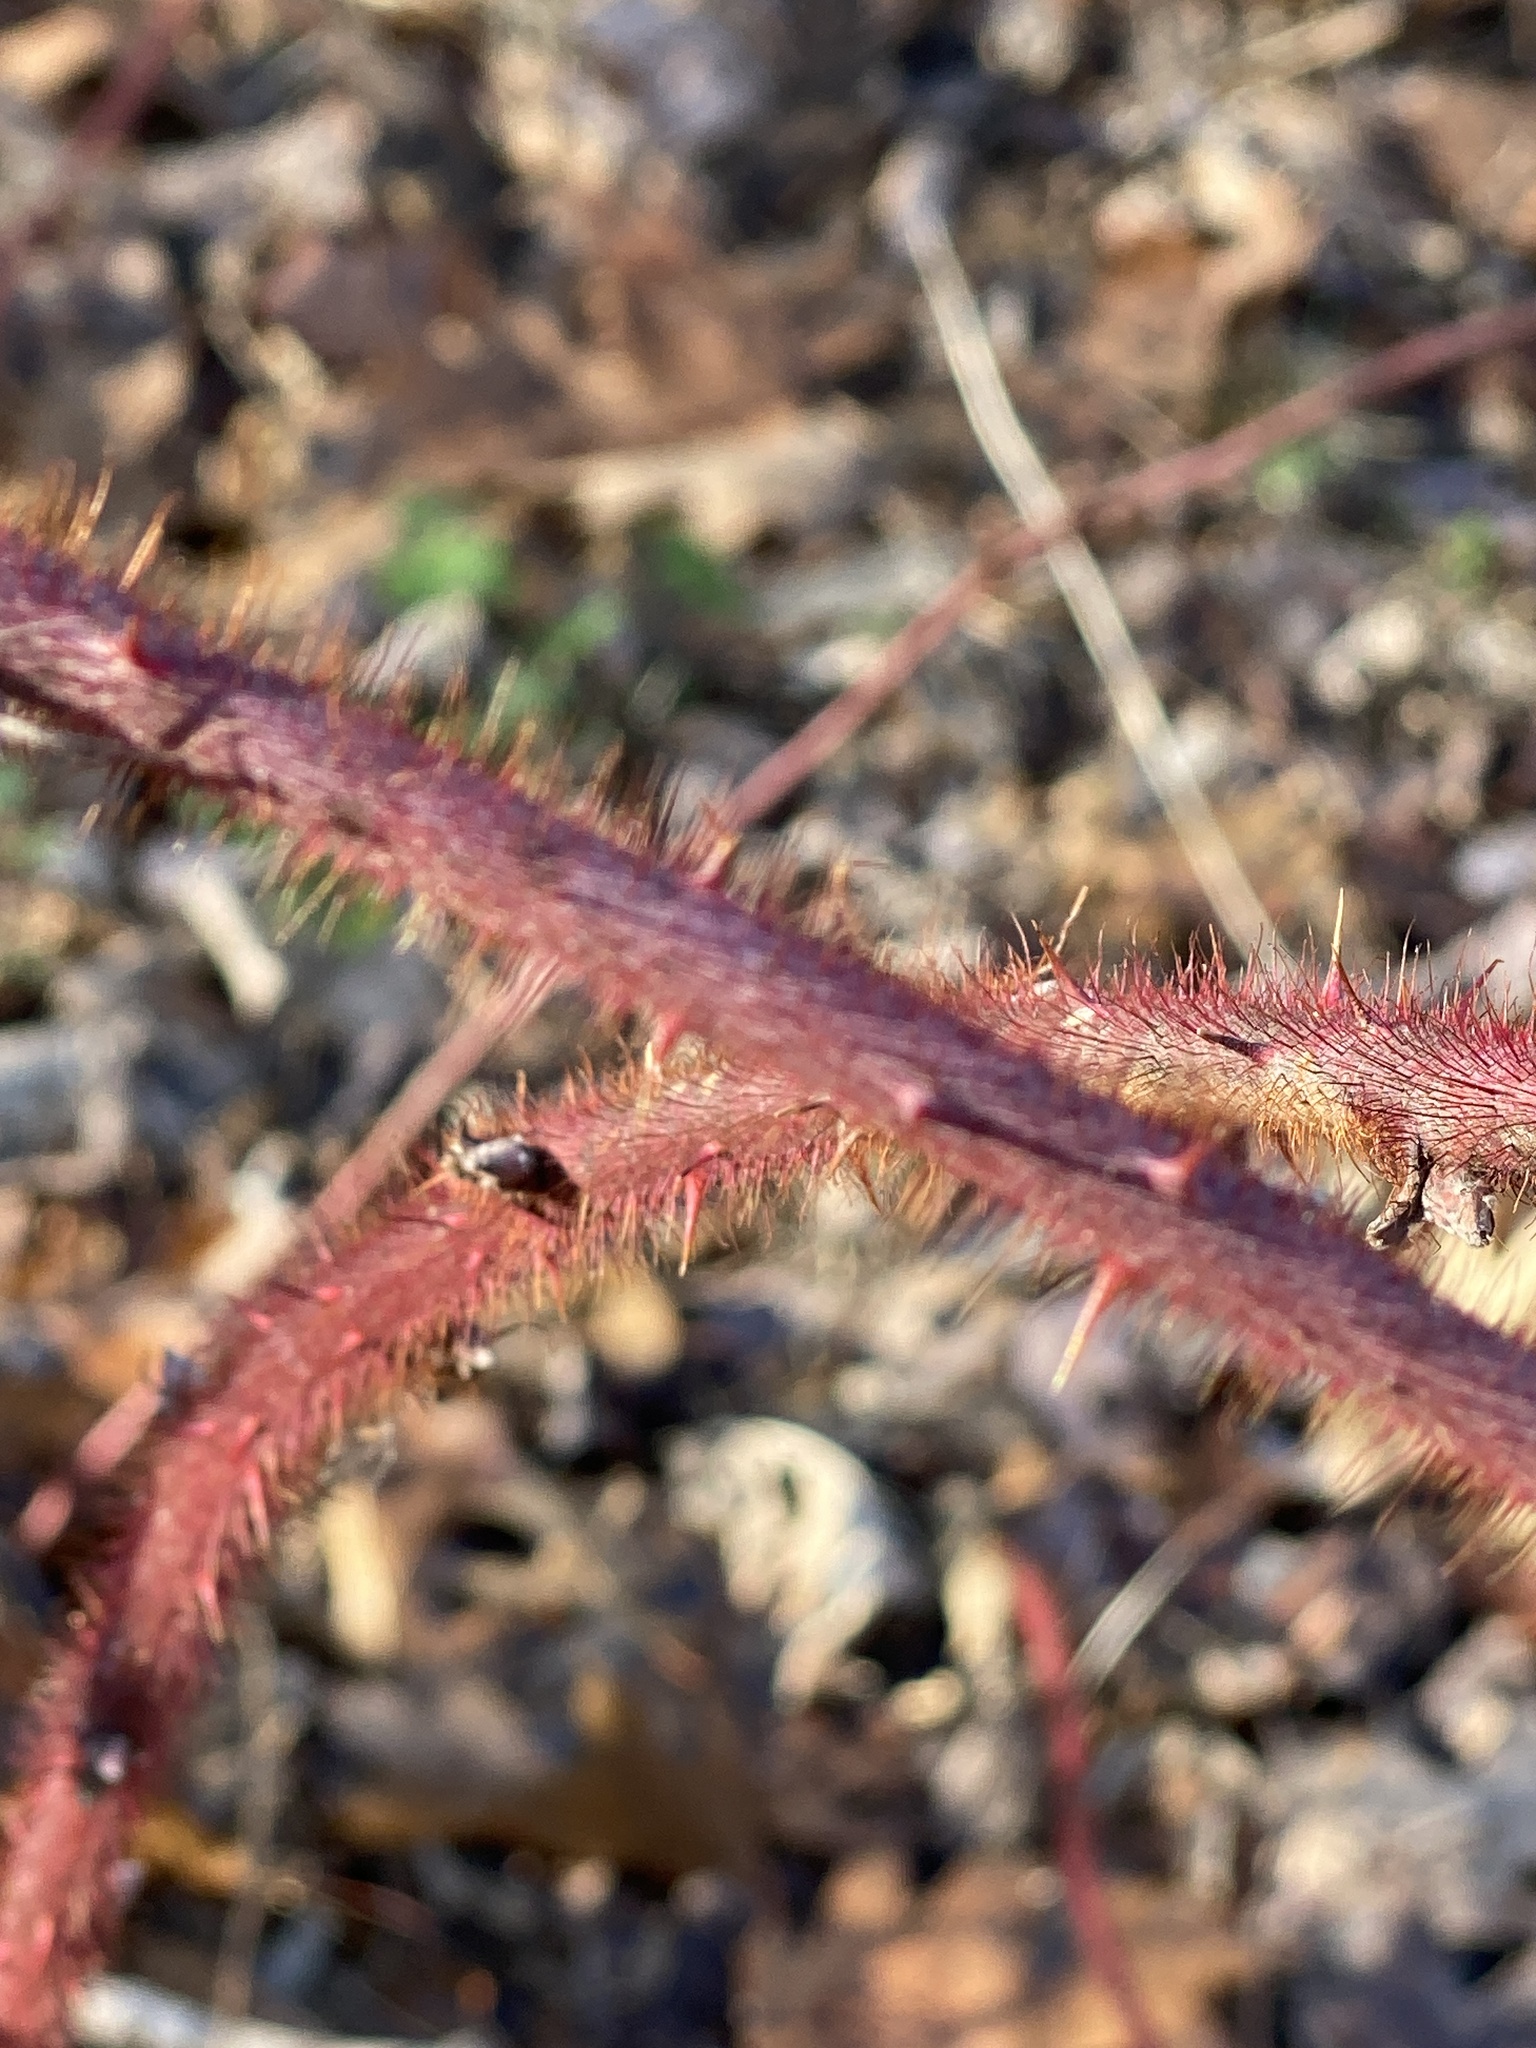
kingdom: Plantae
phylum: Tracheophyta
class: Magnoliopsida
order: Rosales
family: Rosaceae
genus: Rubus
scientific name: Rubus phoenicolasius
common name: Japanese wineberry
